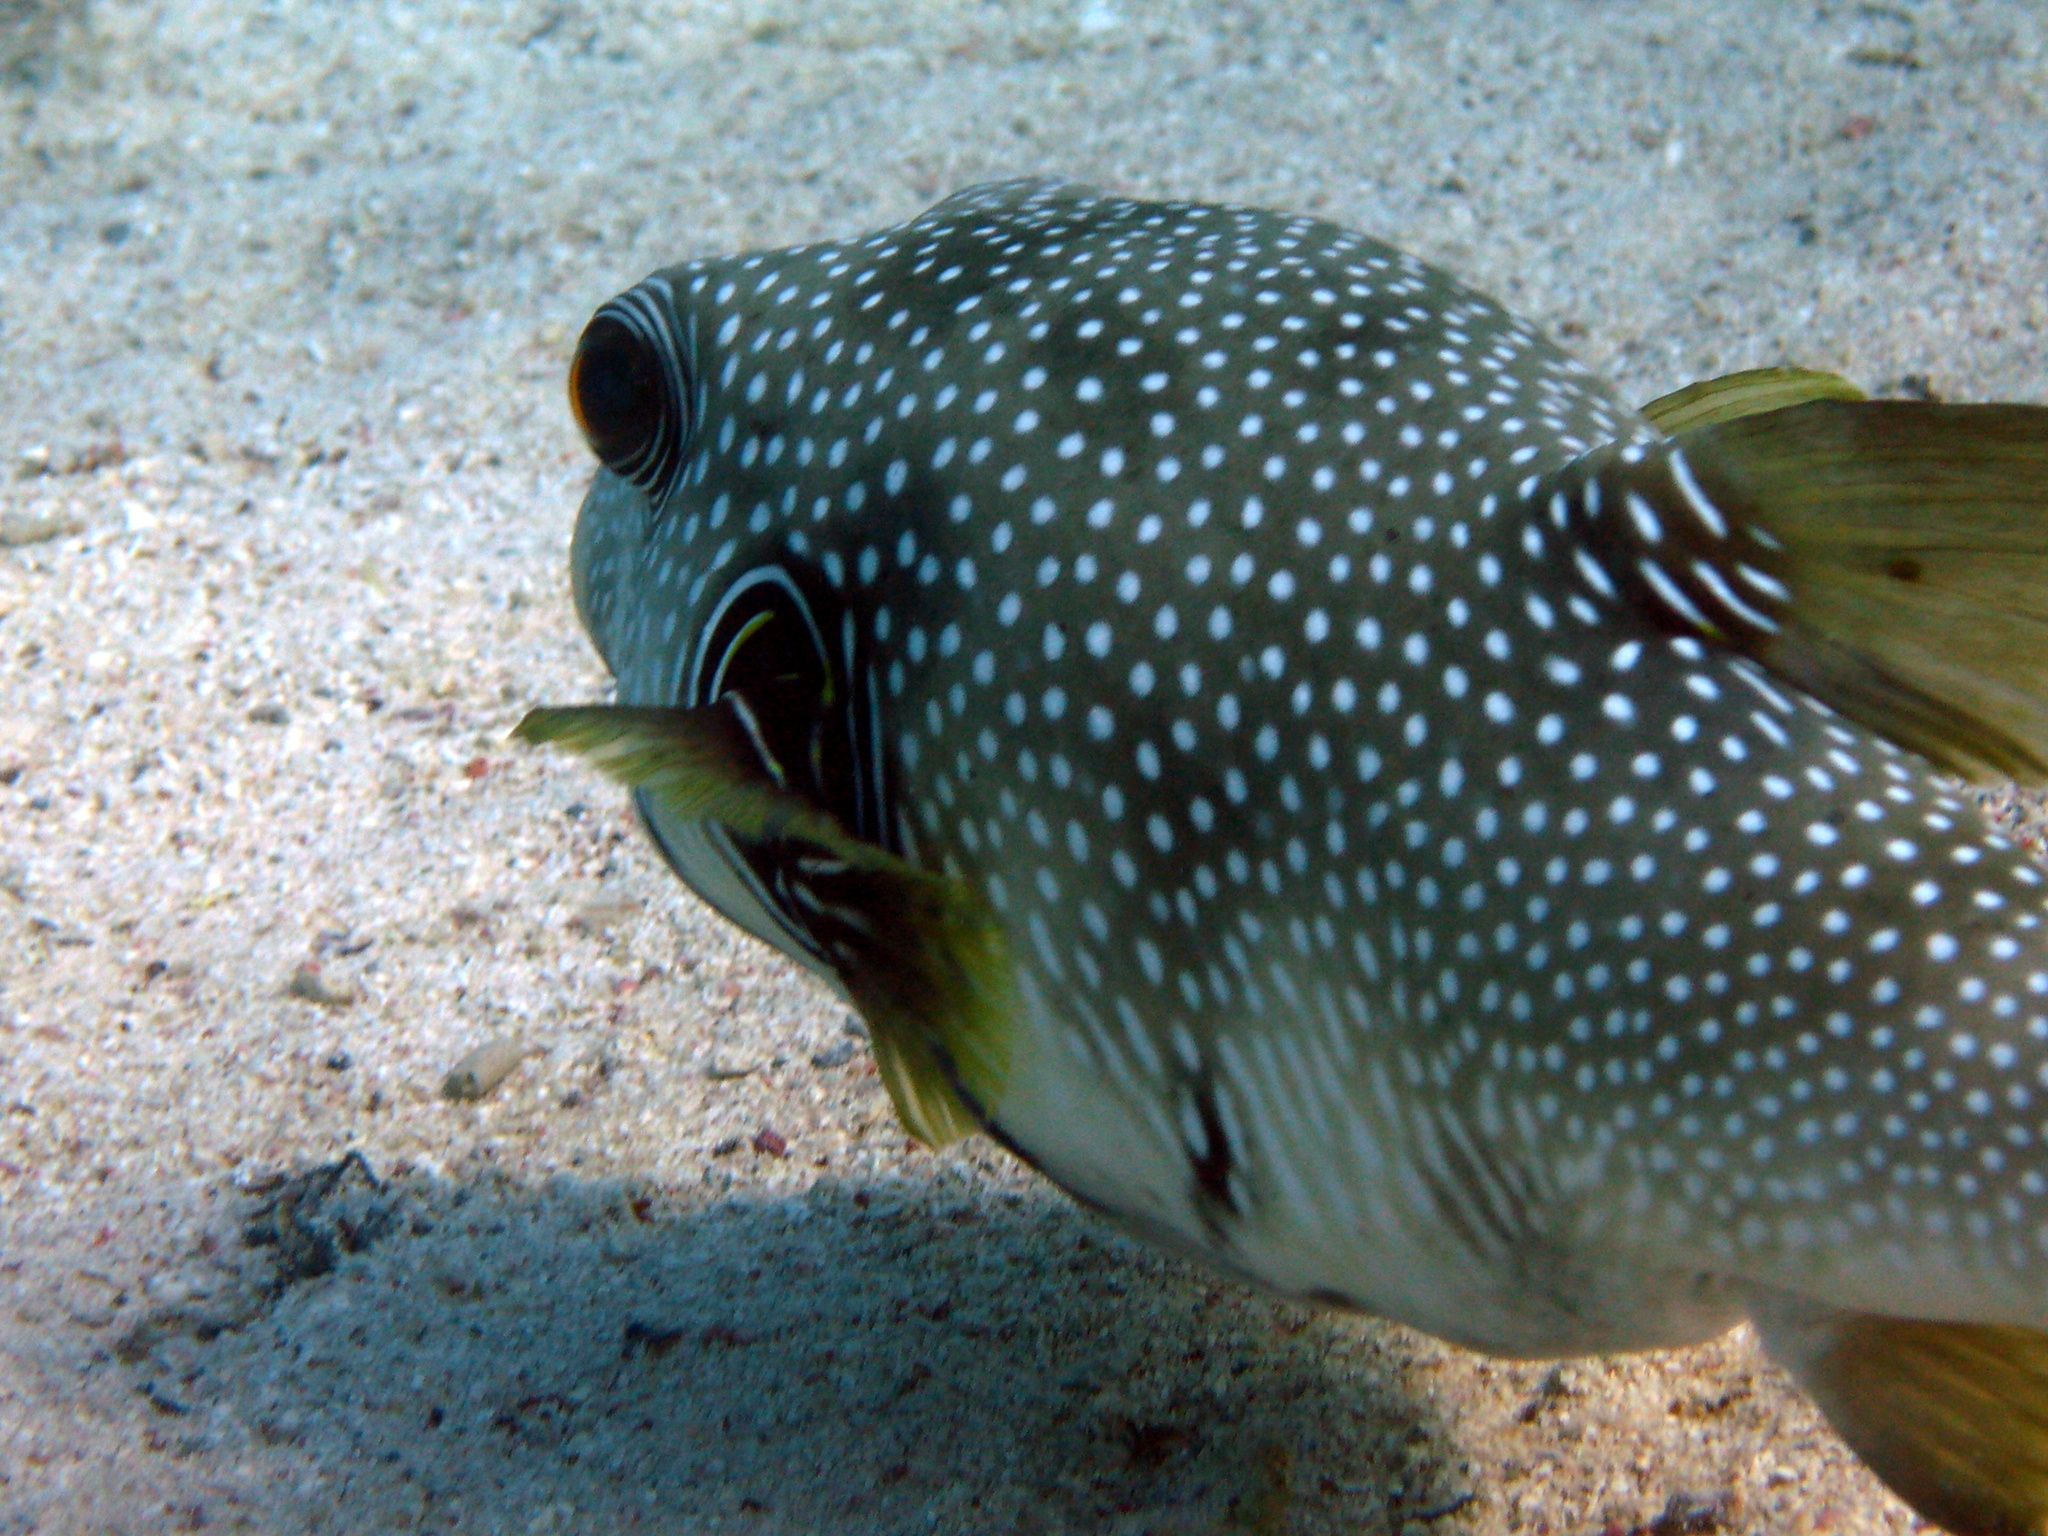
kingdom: Animalia
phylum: Chordata
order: Tetraodontiformes
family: Tetraodontidae
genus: Arothron
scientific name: Arothron hispidus
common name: Stripebelly puffer
